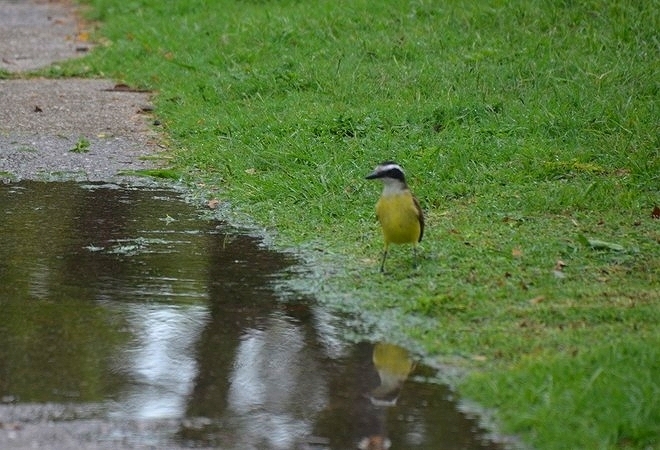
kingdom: Animalia
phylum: Chordata
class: Aves
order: Passeriformes
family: Tyrannidae
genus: Pitangus
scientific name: Pitangus sulphuratus
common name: Great kiskadee
